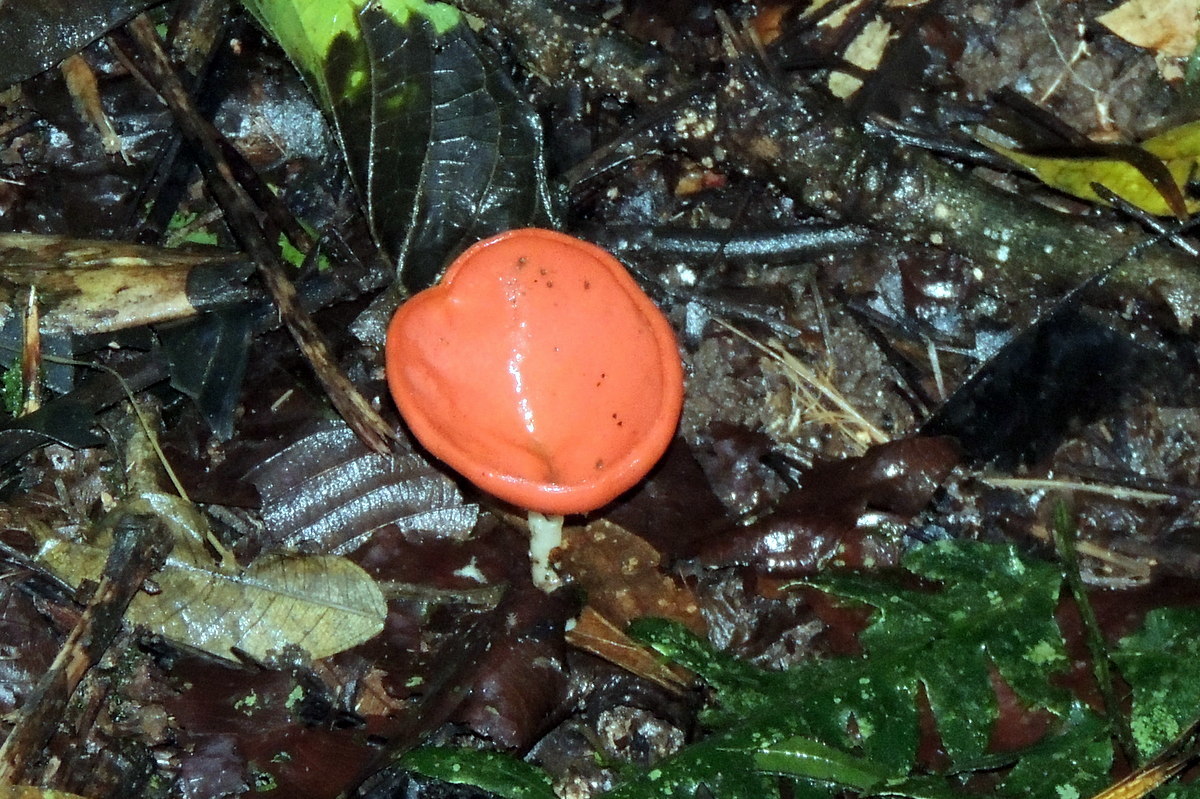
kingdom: Fungi
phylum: Ascomycota
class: Pezizomycetes
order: Pezizales
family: Sarcoscyphaceae
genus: Cookeina
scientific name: Cookeina speciosa
